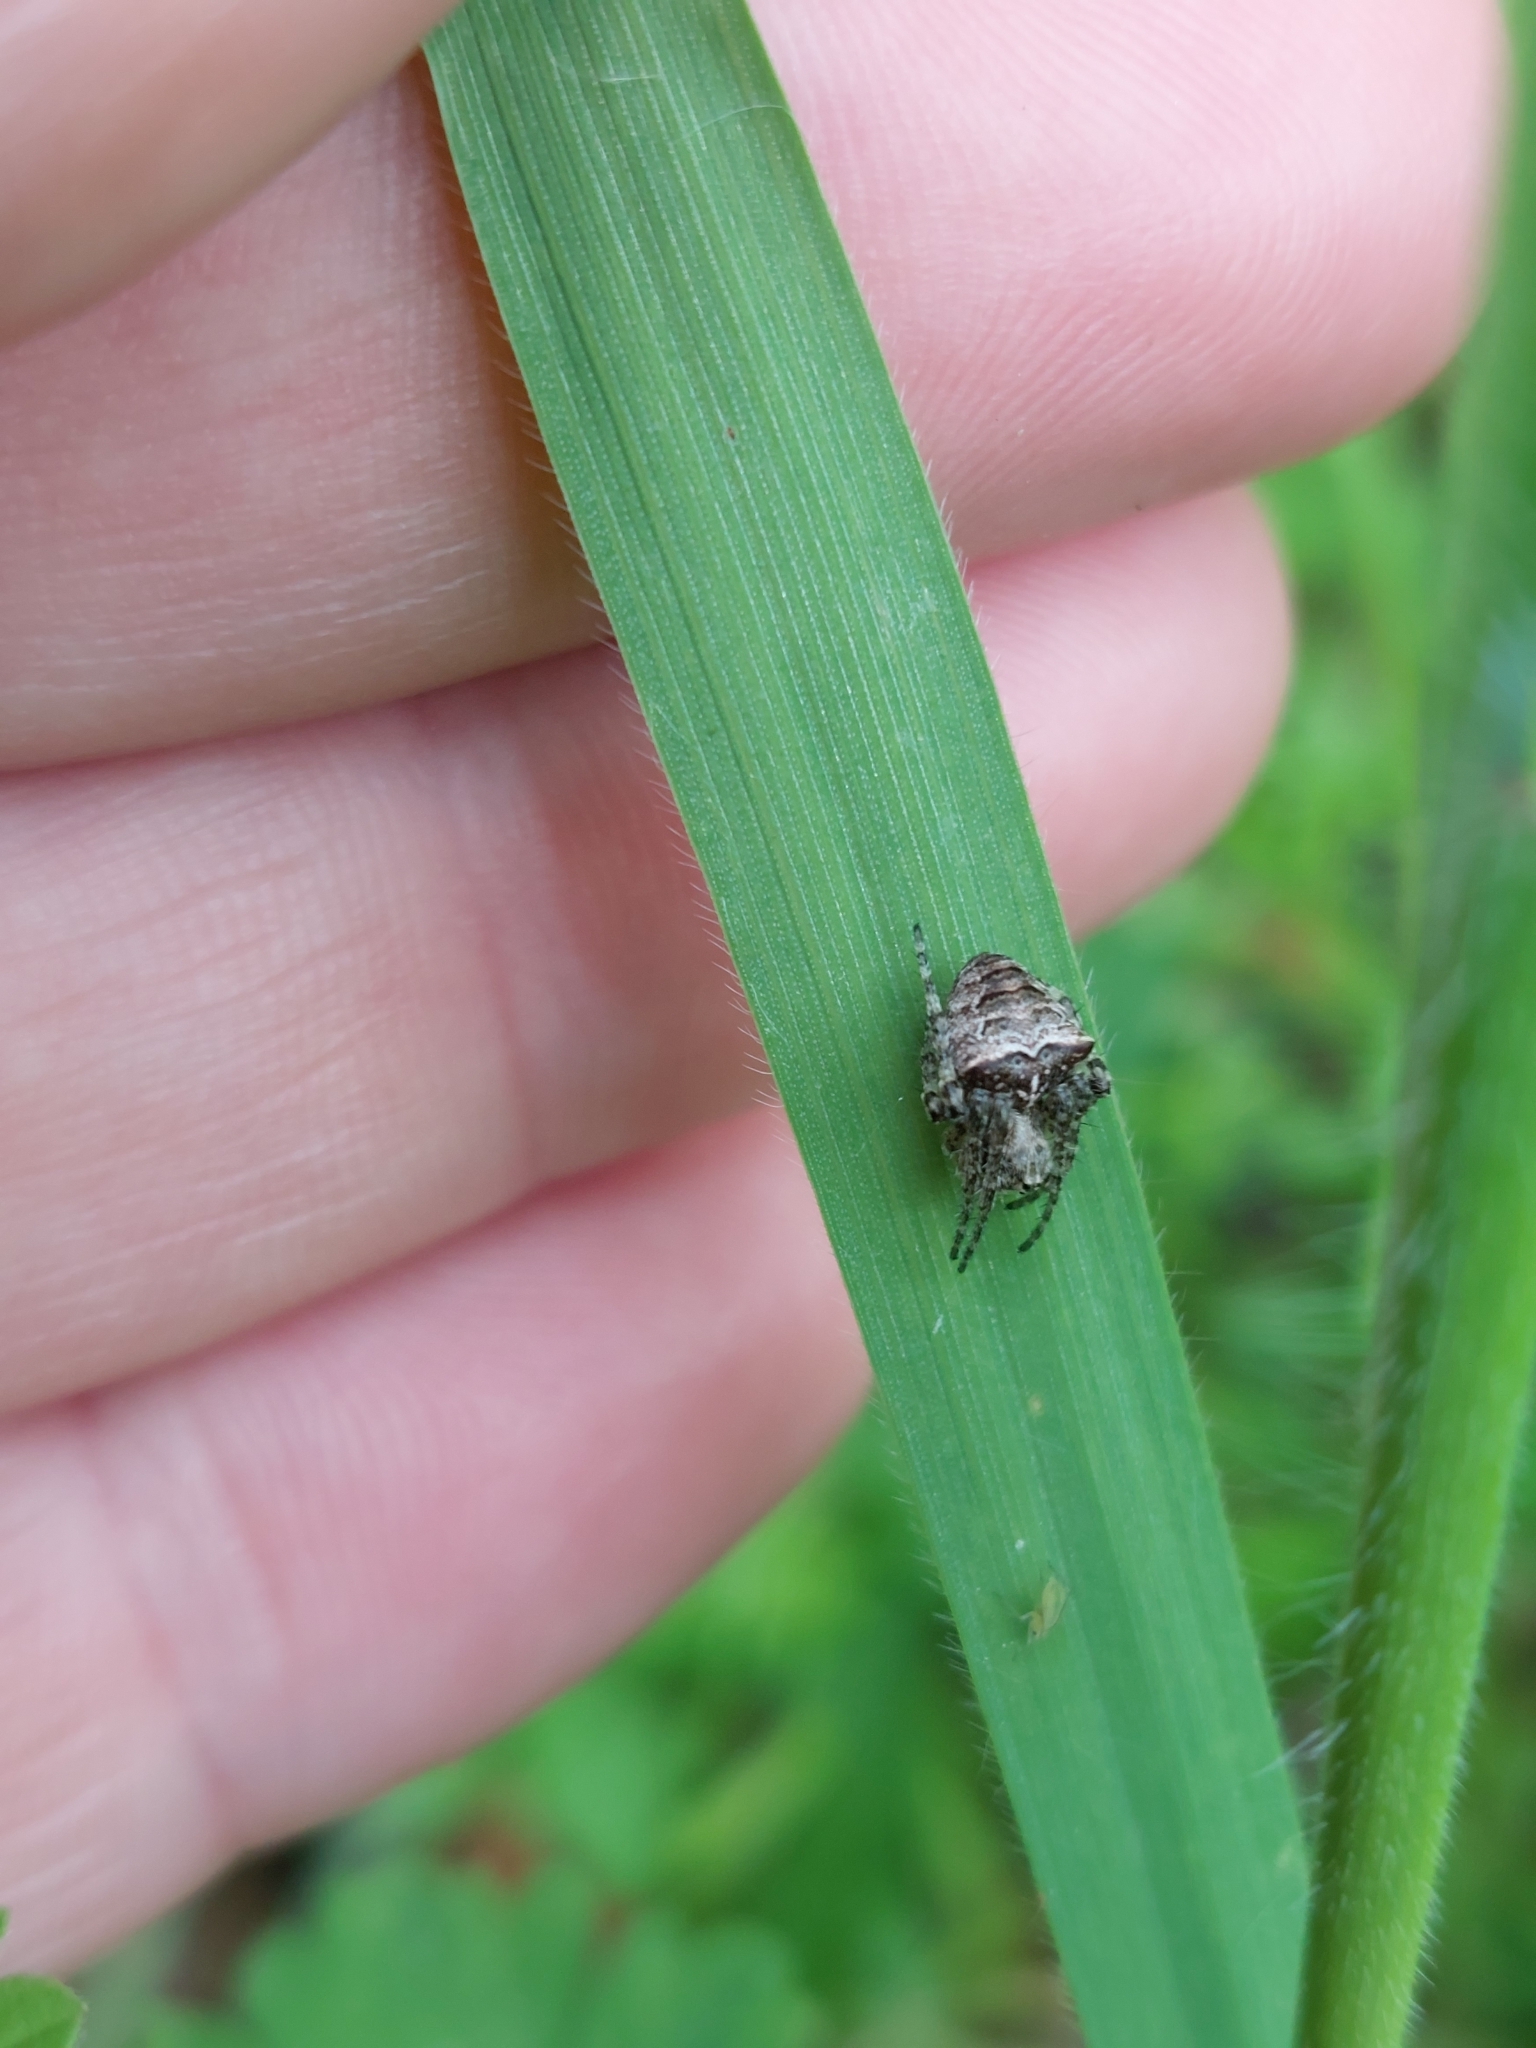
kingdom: Animalia
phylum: Arthropoda
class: Arachnida
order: Araneae
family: Araneidae
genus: Gibbaranea
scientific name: Gibbaranea bituberculata
